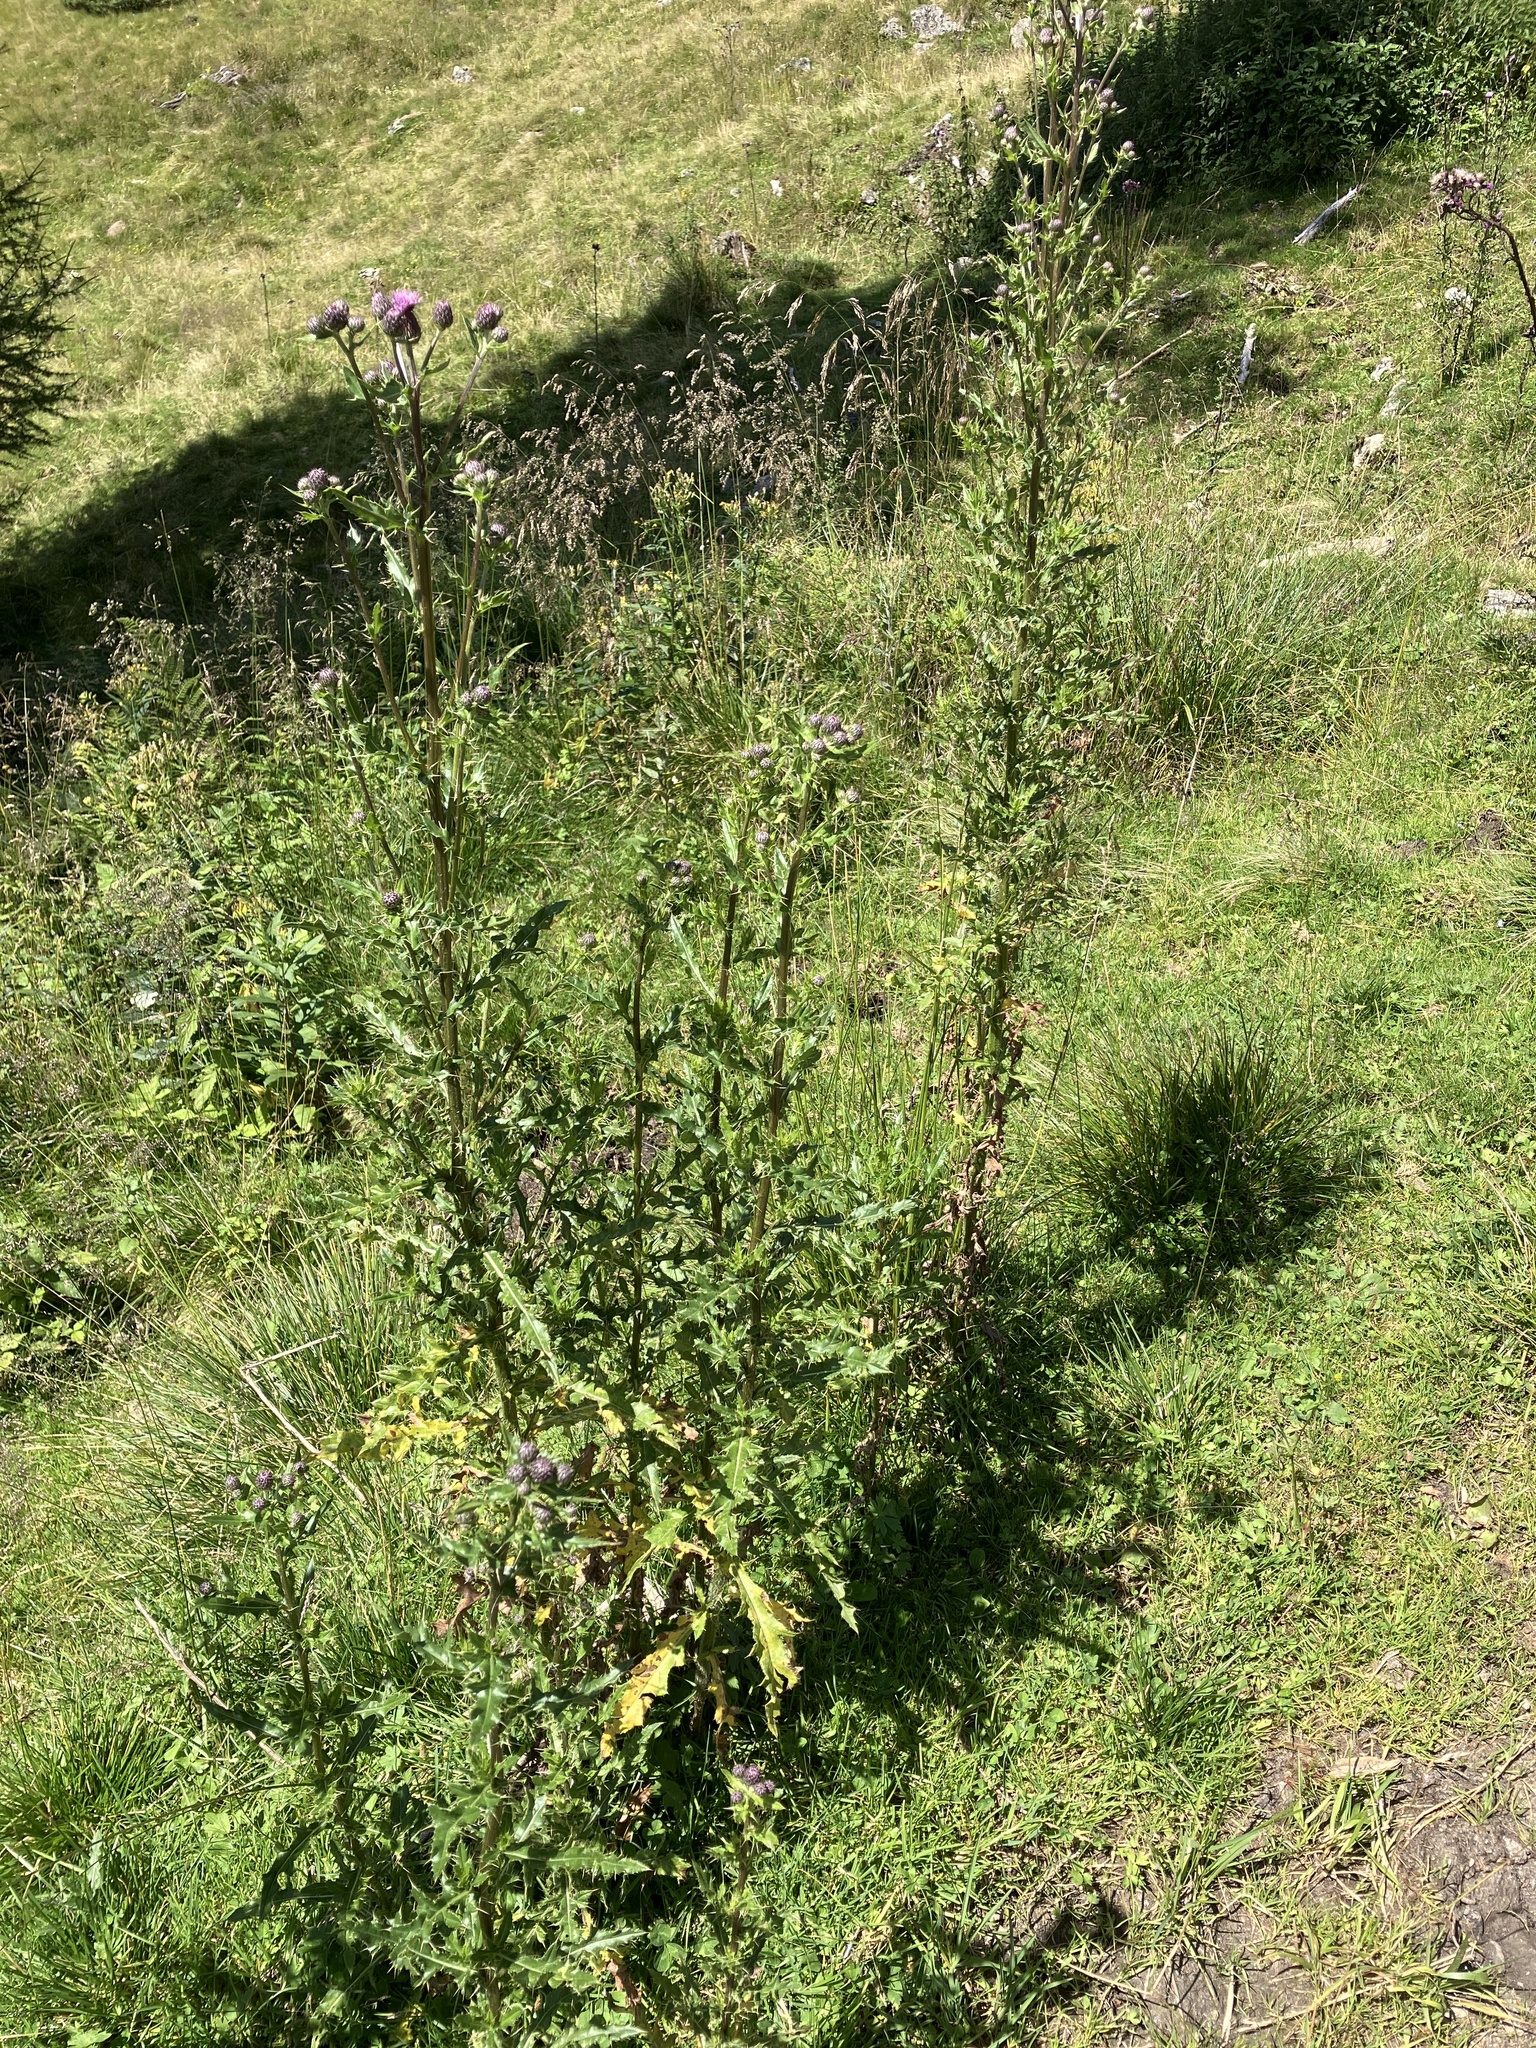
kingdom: Plantae
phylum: Tracheophyta
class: Magnoliopsida
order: Asterales
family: Asteraceae
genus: Cirsium
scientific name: Cirsium arvense
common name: Creeping thistle
